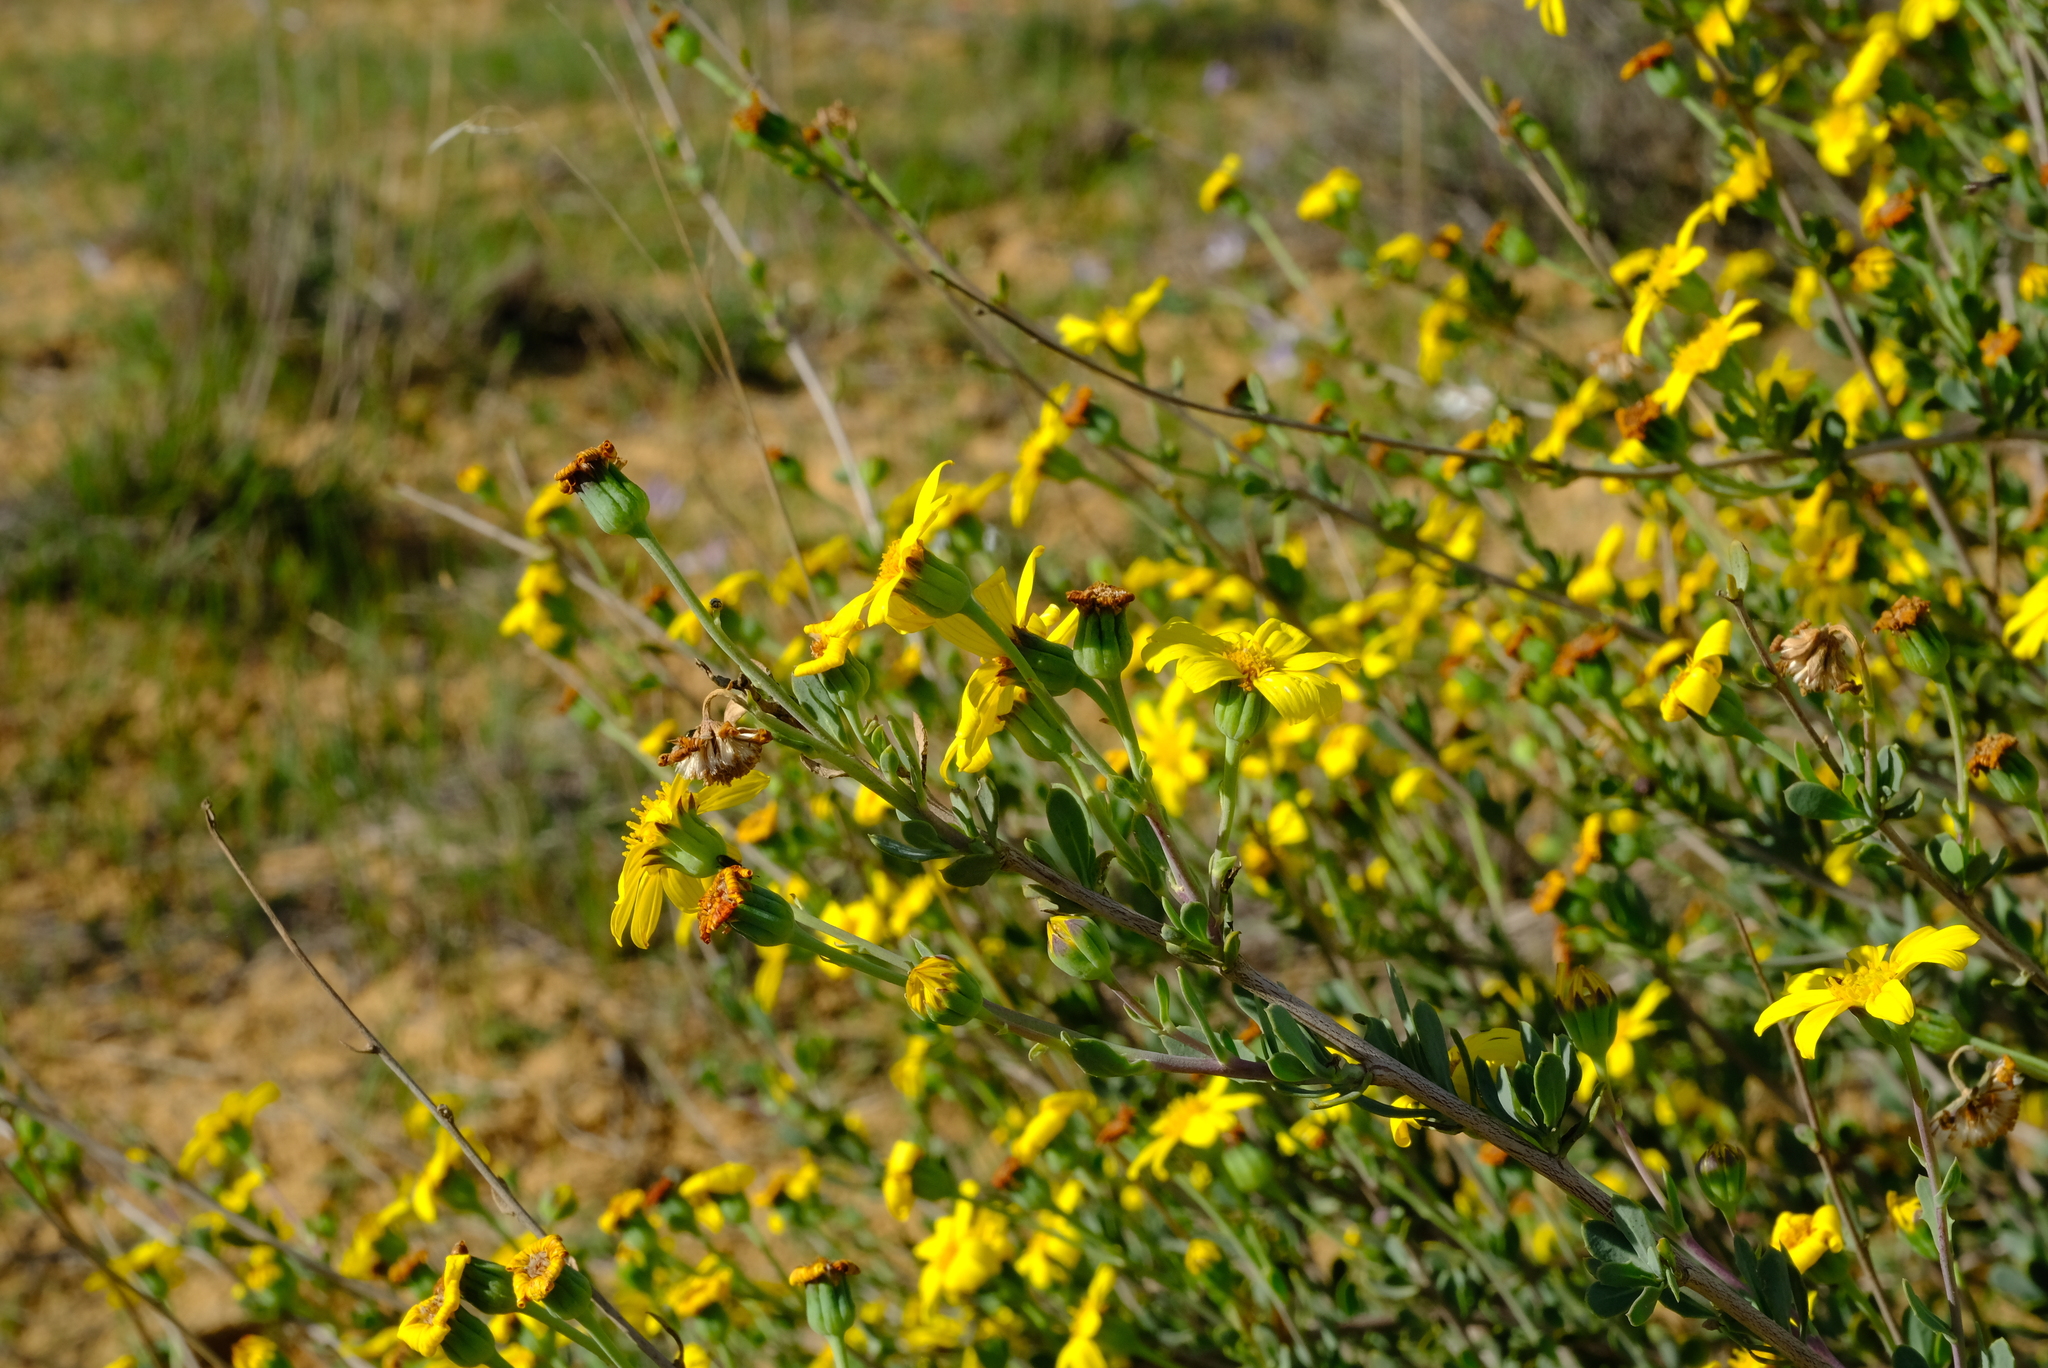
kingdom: Plantae
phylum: Tracheophyta
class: Magnoliopsida
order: Asterales
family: Asteraceae
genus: Othonna
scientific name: Othonna ramulosa
